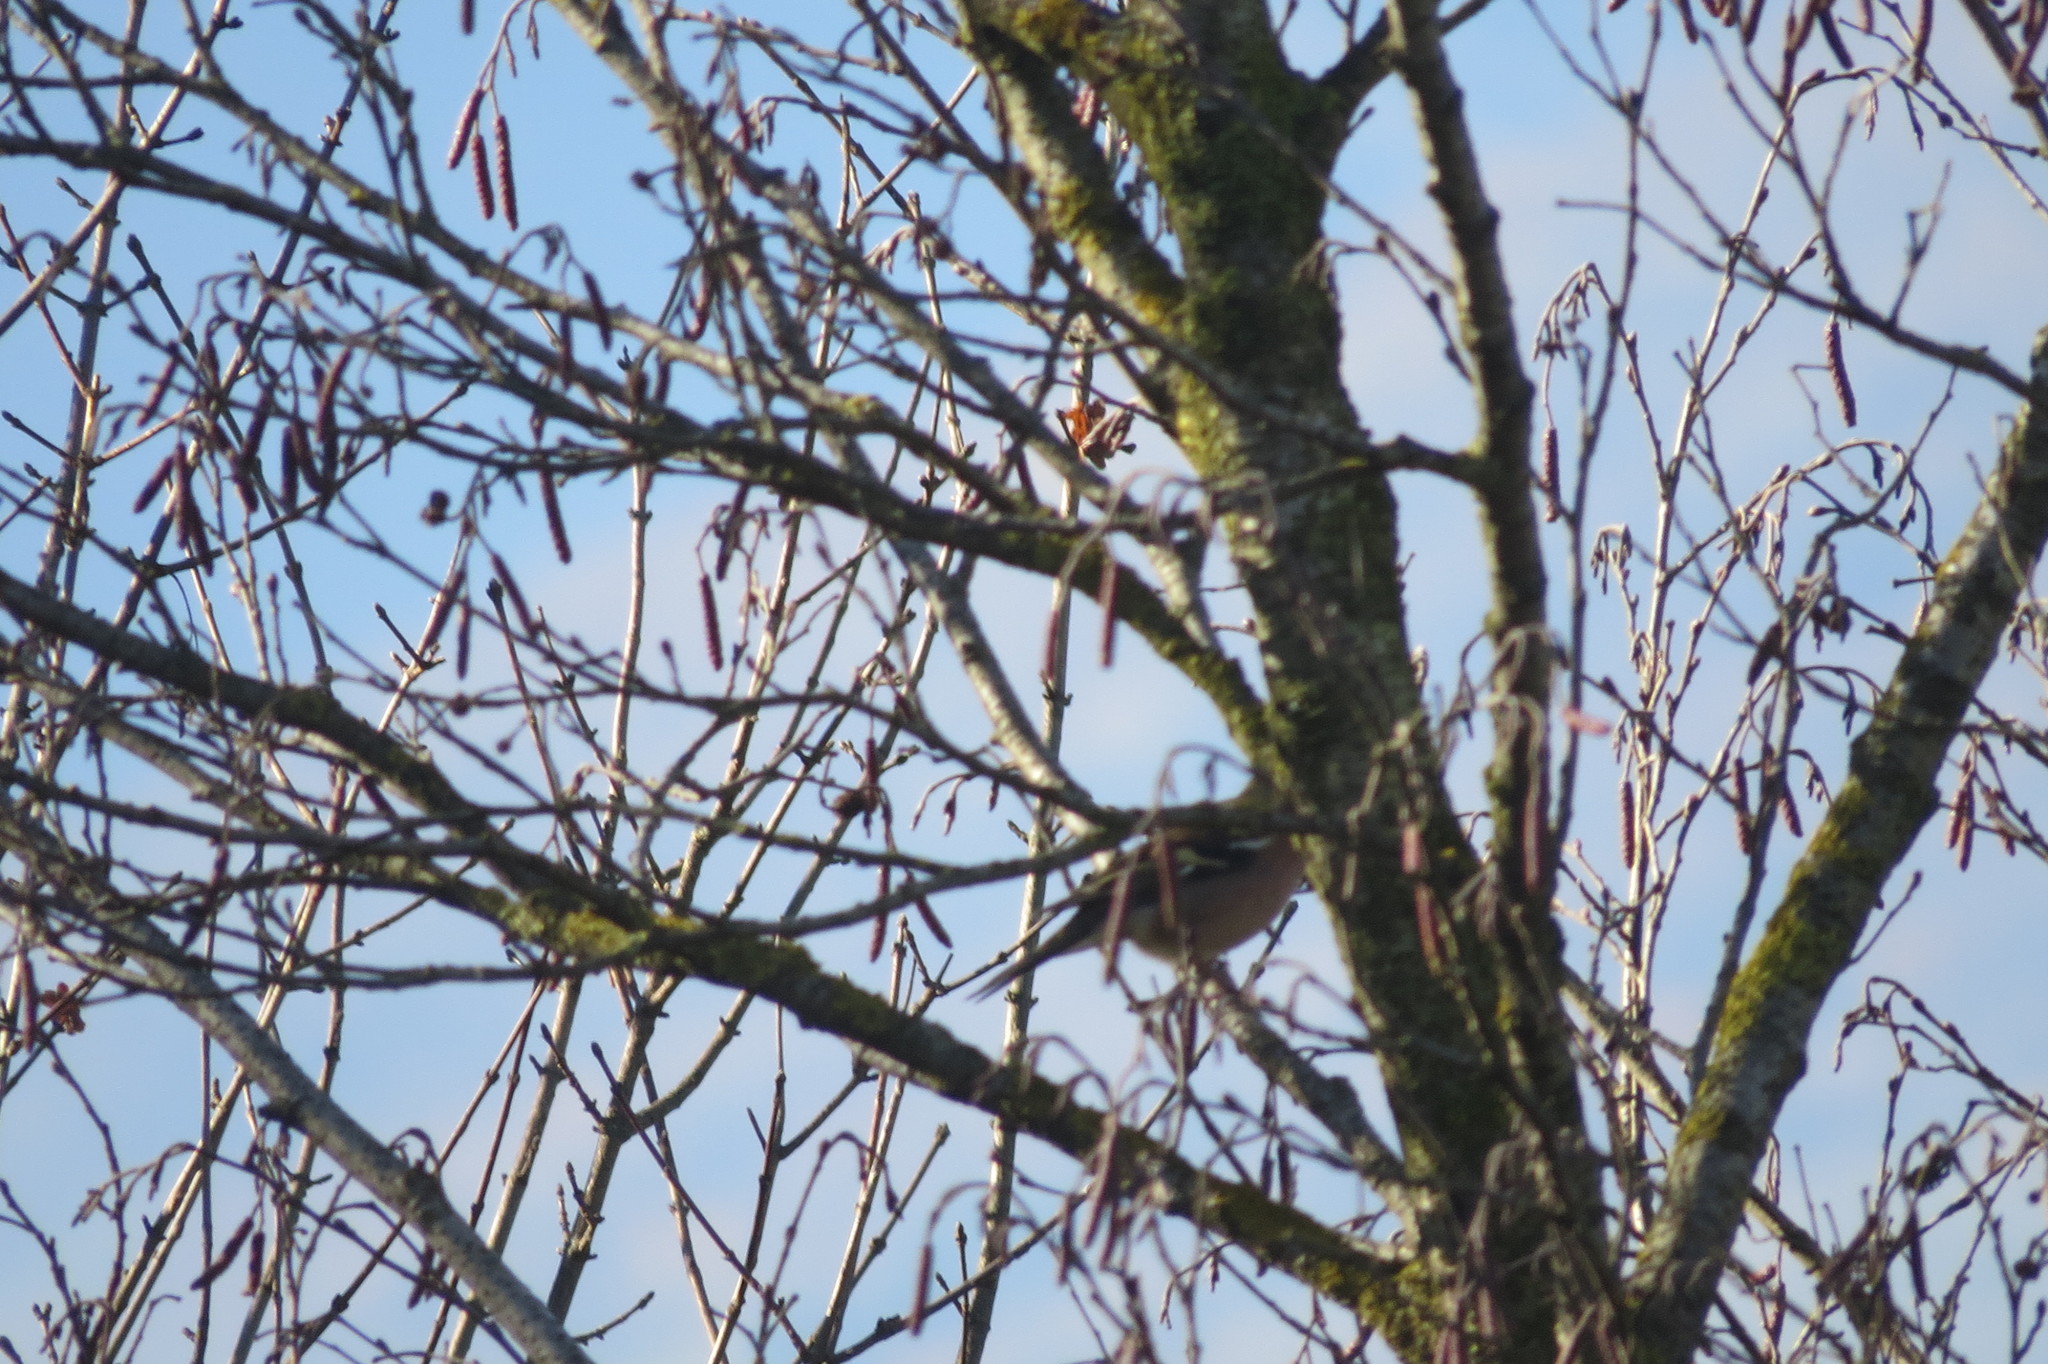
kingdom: Animalia
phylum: Chordata
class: Aves
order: Passeriformes
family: Fringillidae
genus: Fringilla
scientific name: Fringilla coelebs
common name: Common chaffinch
